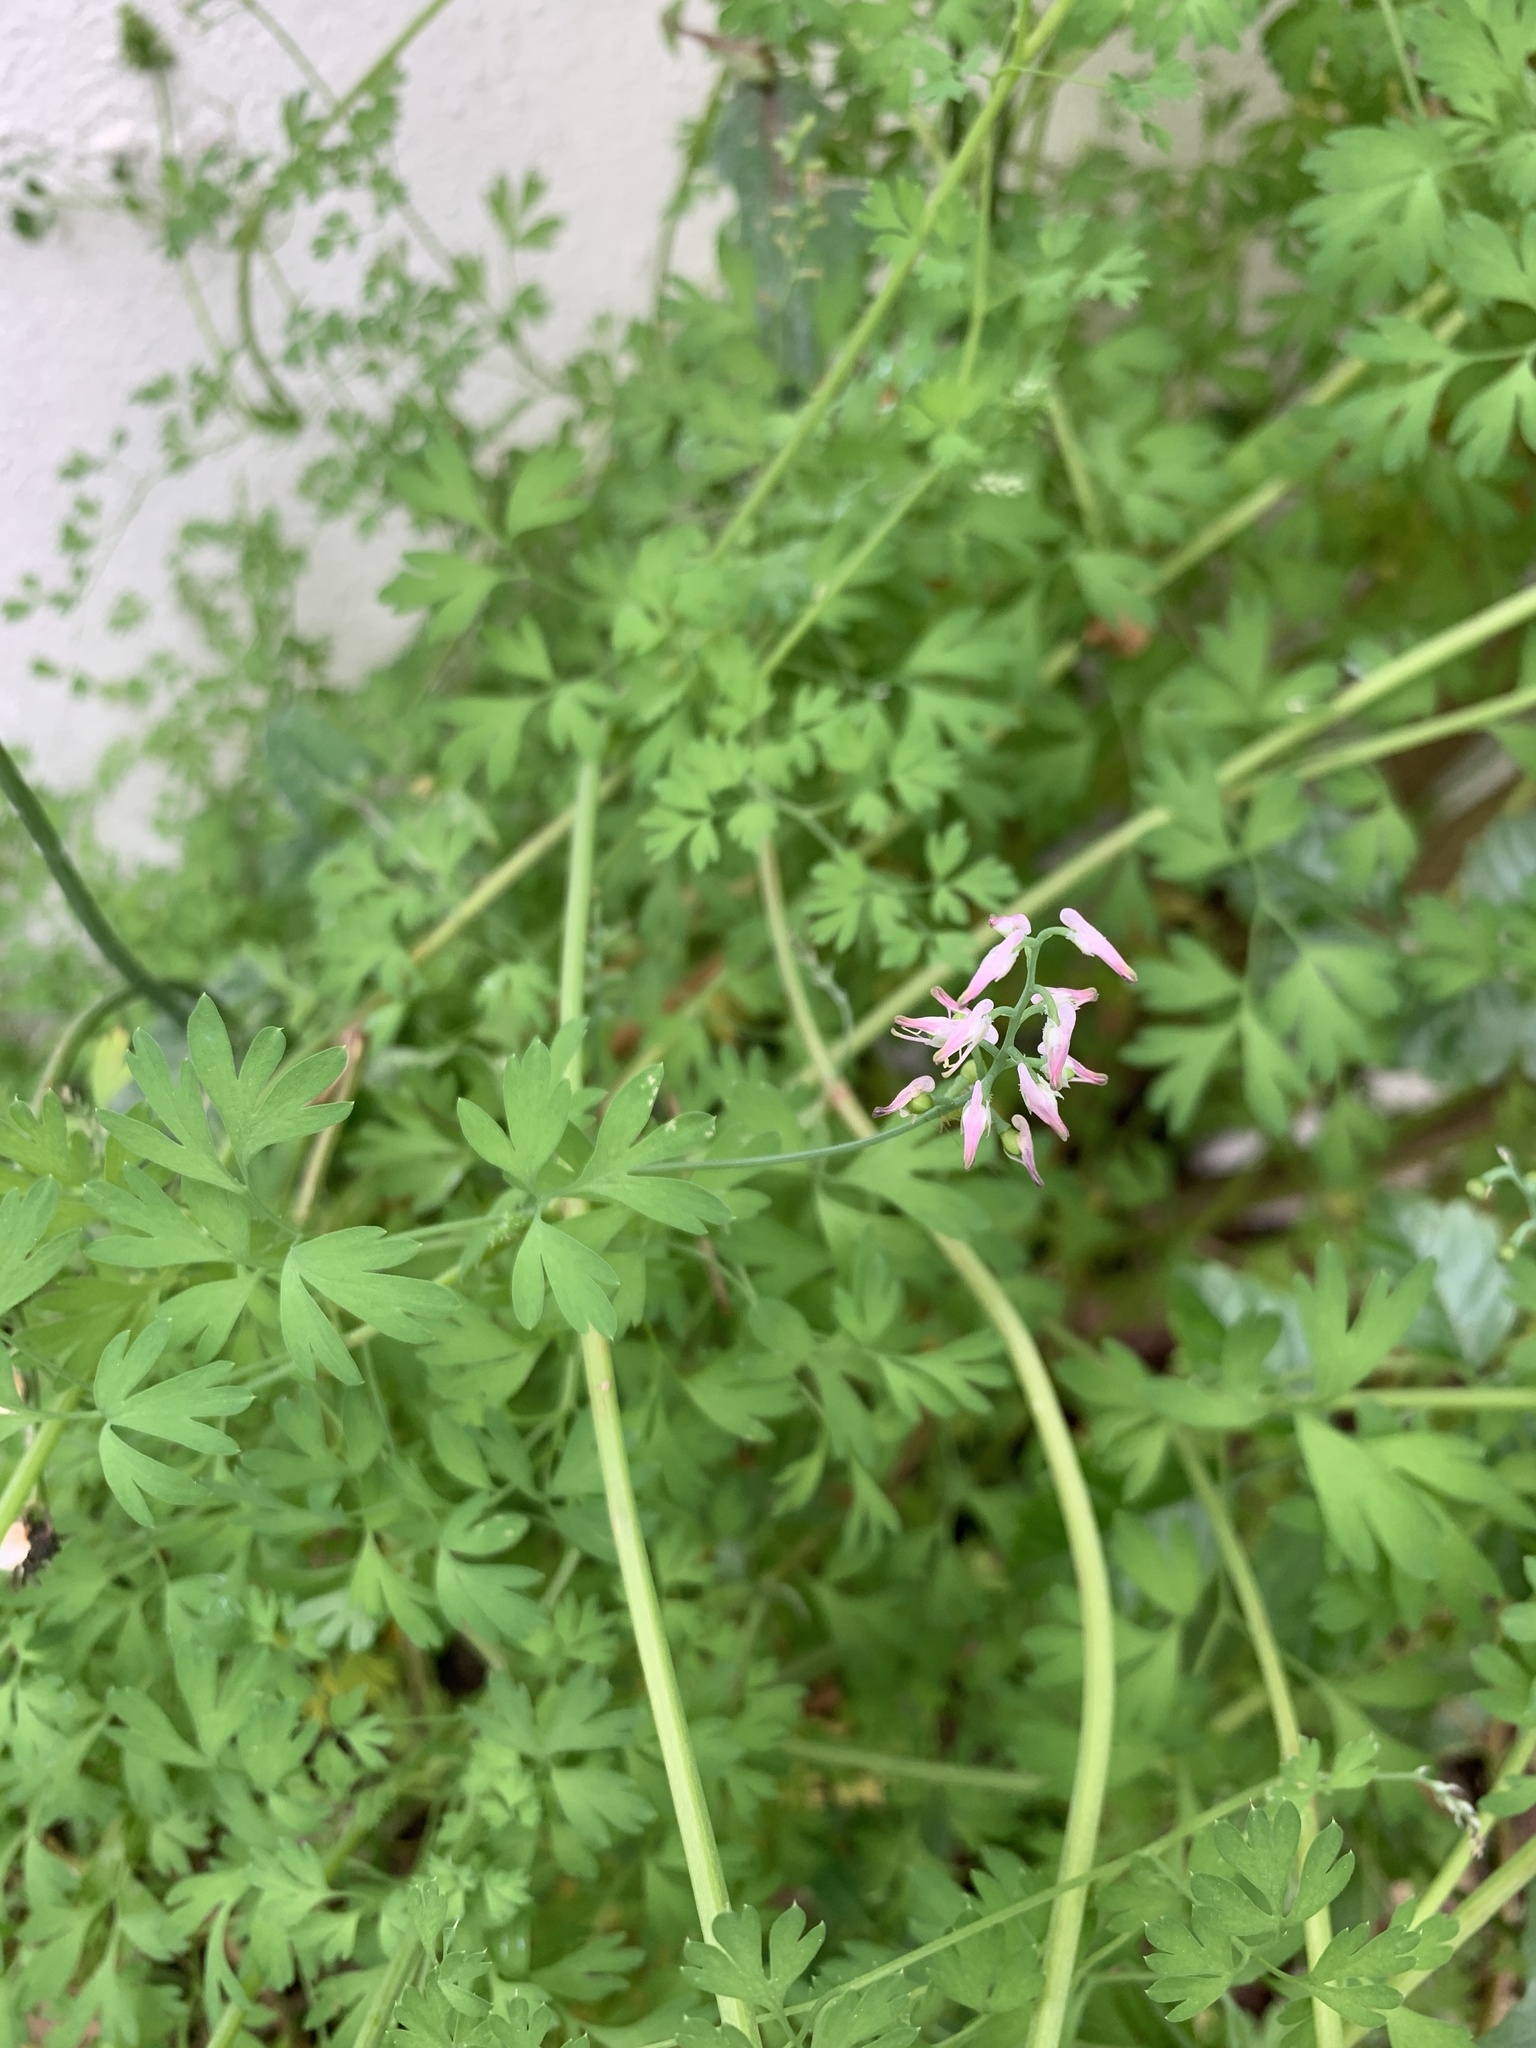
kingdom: Plantae
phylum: Tracheophyta
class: Magnoliopsida
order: Ranunculales
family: Papaveraceae
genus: Fumaria
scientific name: Fumaria muralis
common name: Common ramping-fumitory
